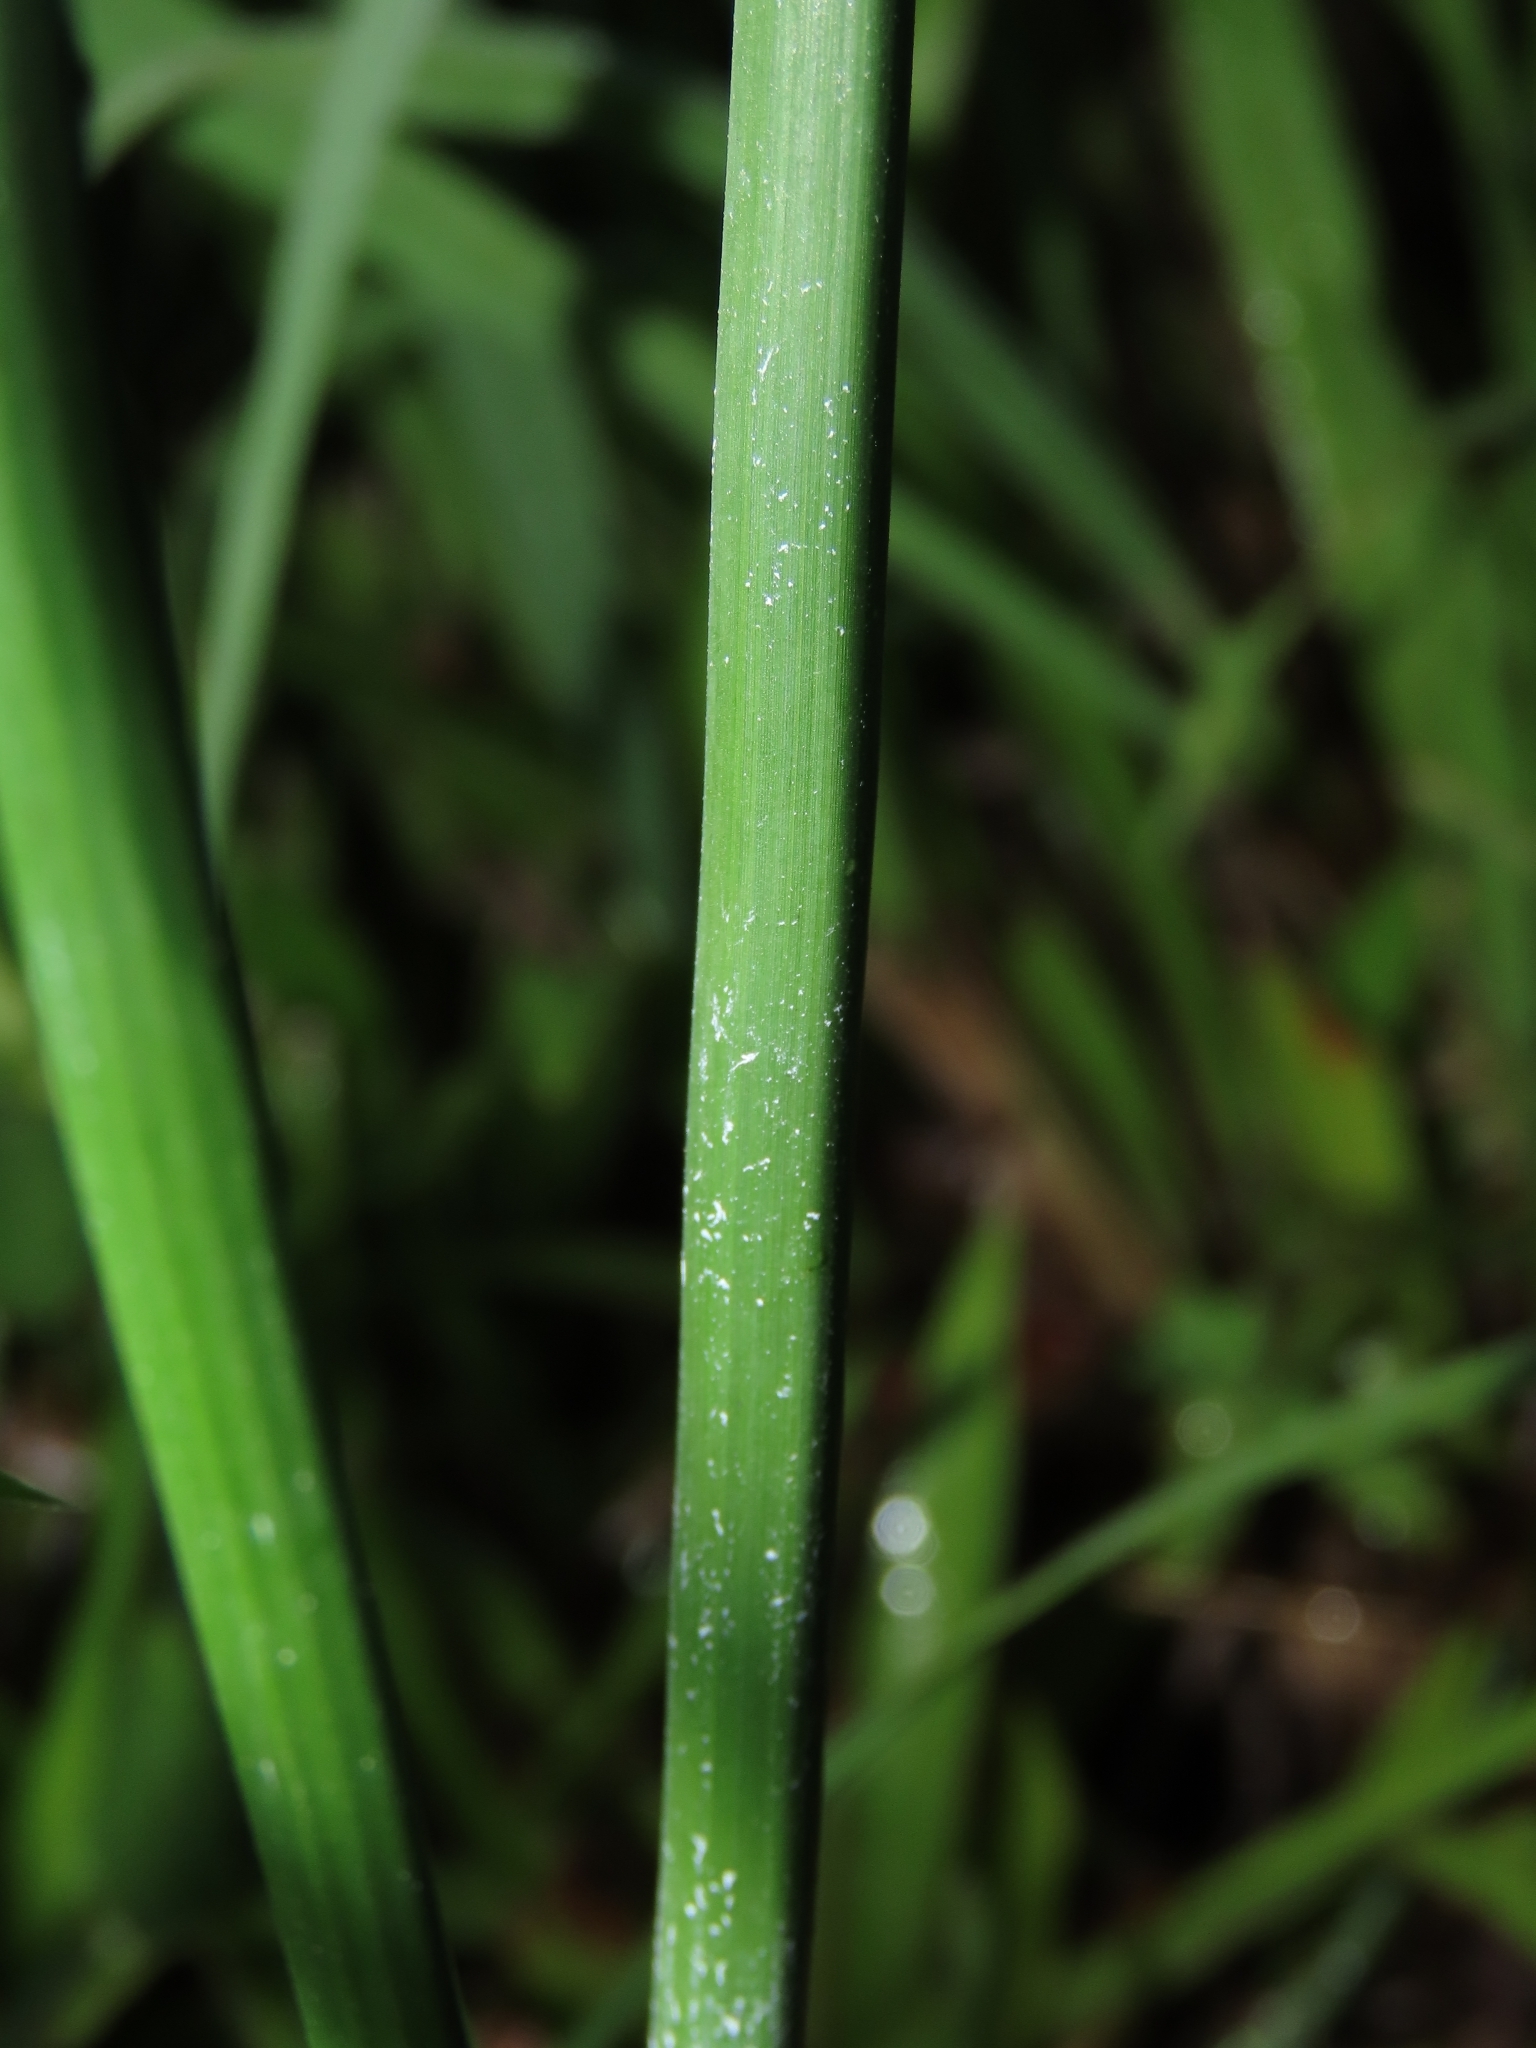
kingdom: Plantae
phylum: Tracheophyta
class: Liliopsida
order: Poales
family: Cyperaceae
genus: Cyperus
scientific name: Cyperus alternifolius
